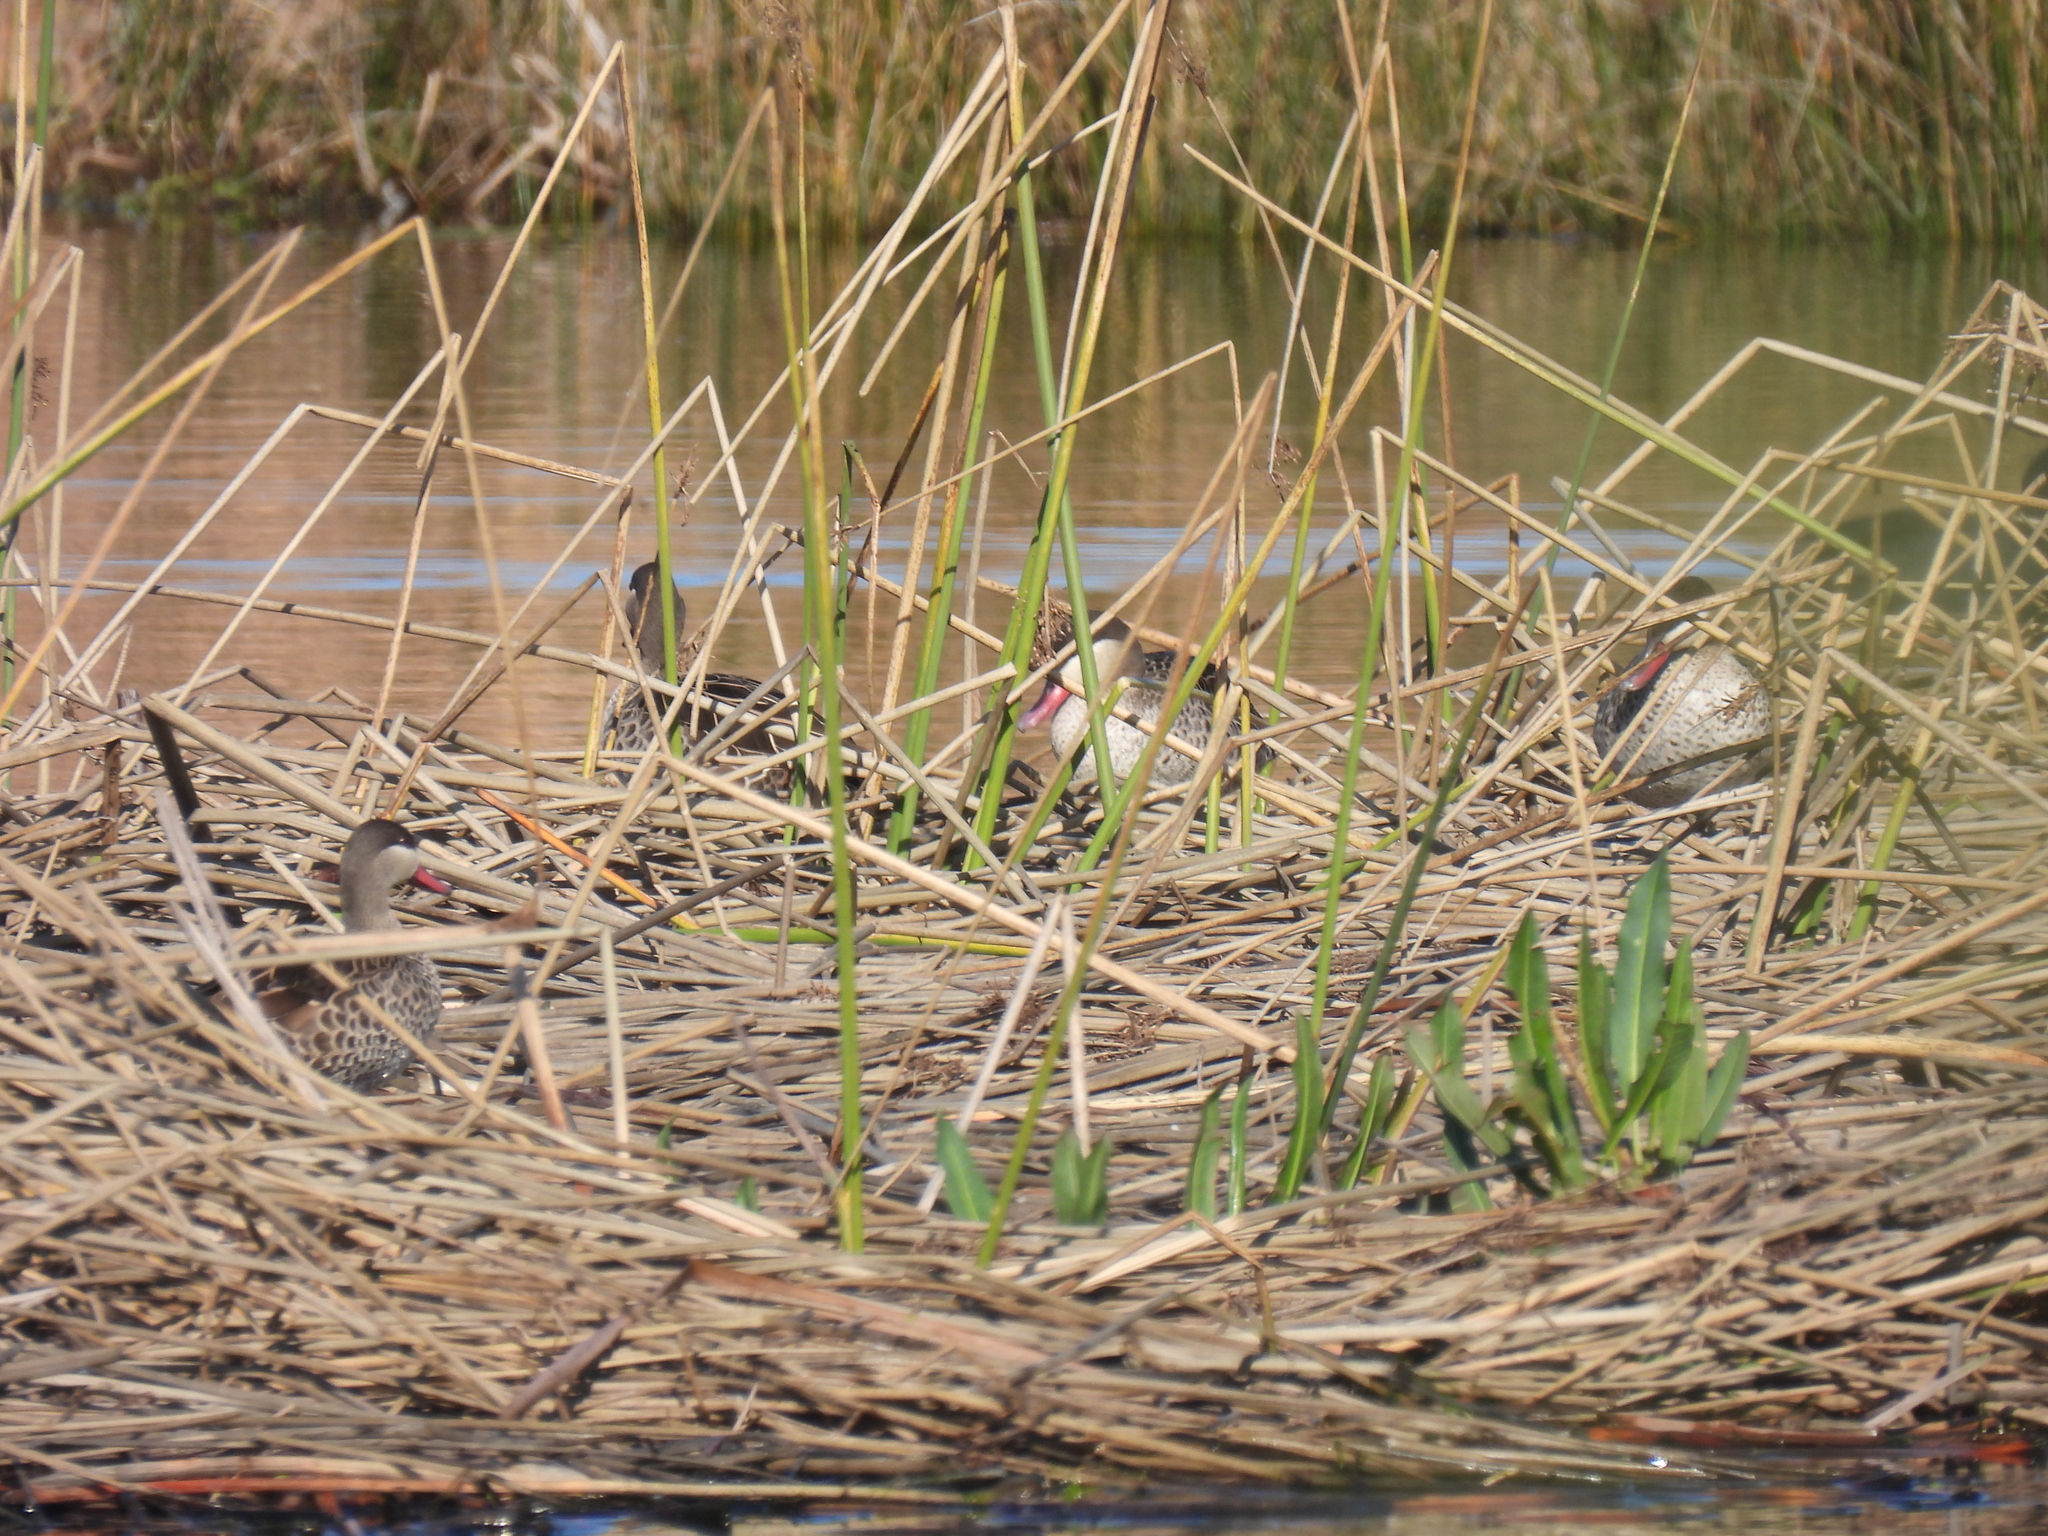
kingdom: Animalia
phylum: Chordata
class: Aves
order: Anseriformes
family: Anatidae
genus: Anas
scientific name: Anas erythrorhyncha
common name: Red-billed teal
